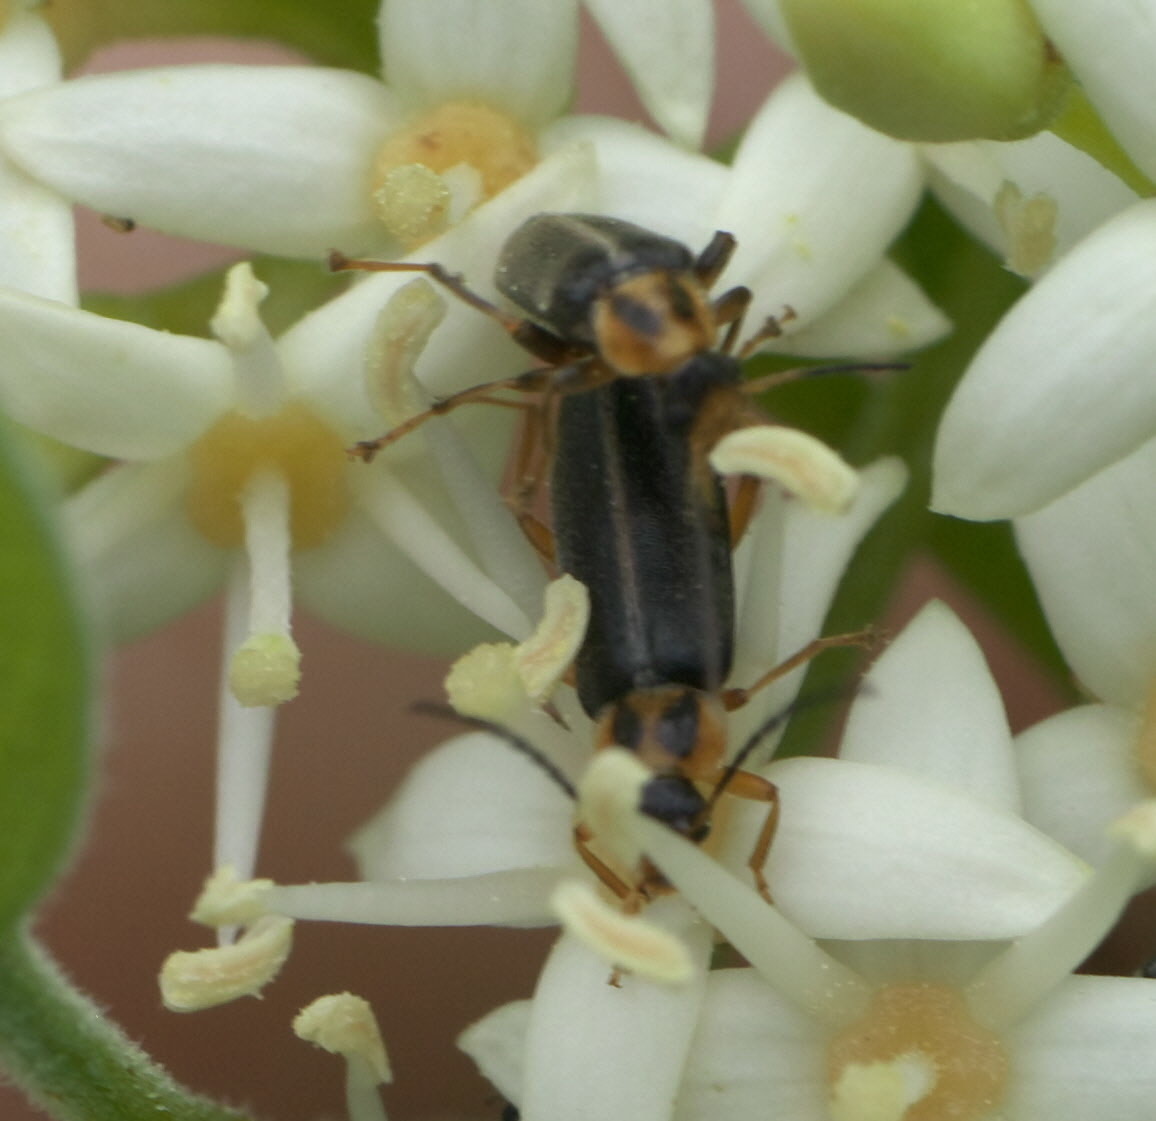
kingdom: Animalia
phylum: Arthropoda
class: Insecta
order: Coleoptera
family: Melandryidae
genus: Osphya
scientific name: Osphya varians
